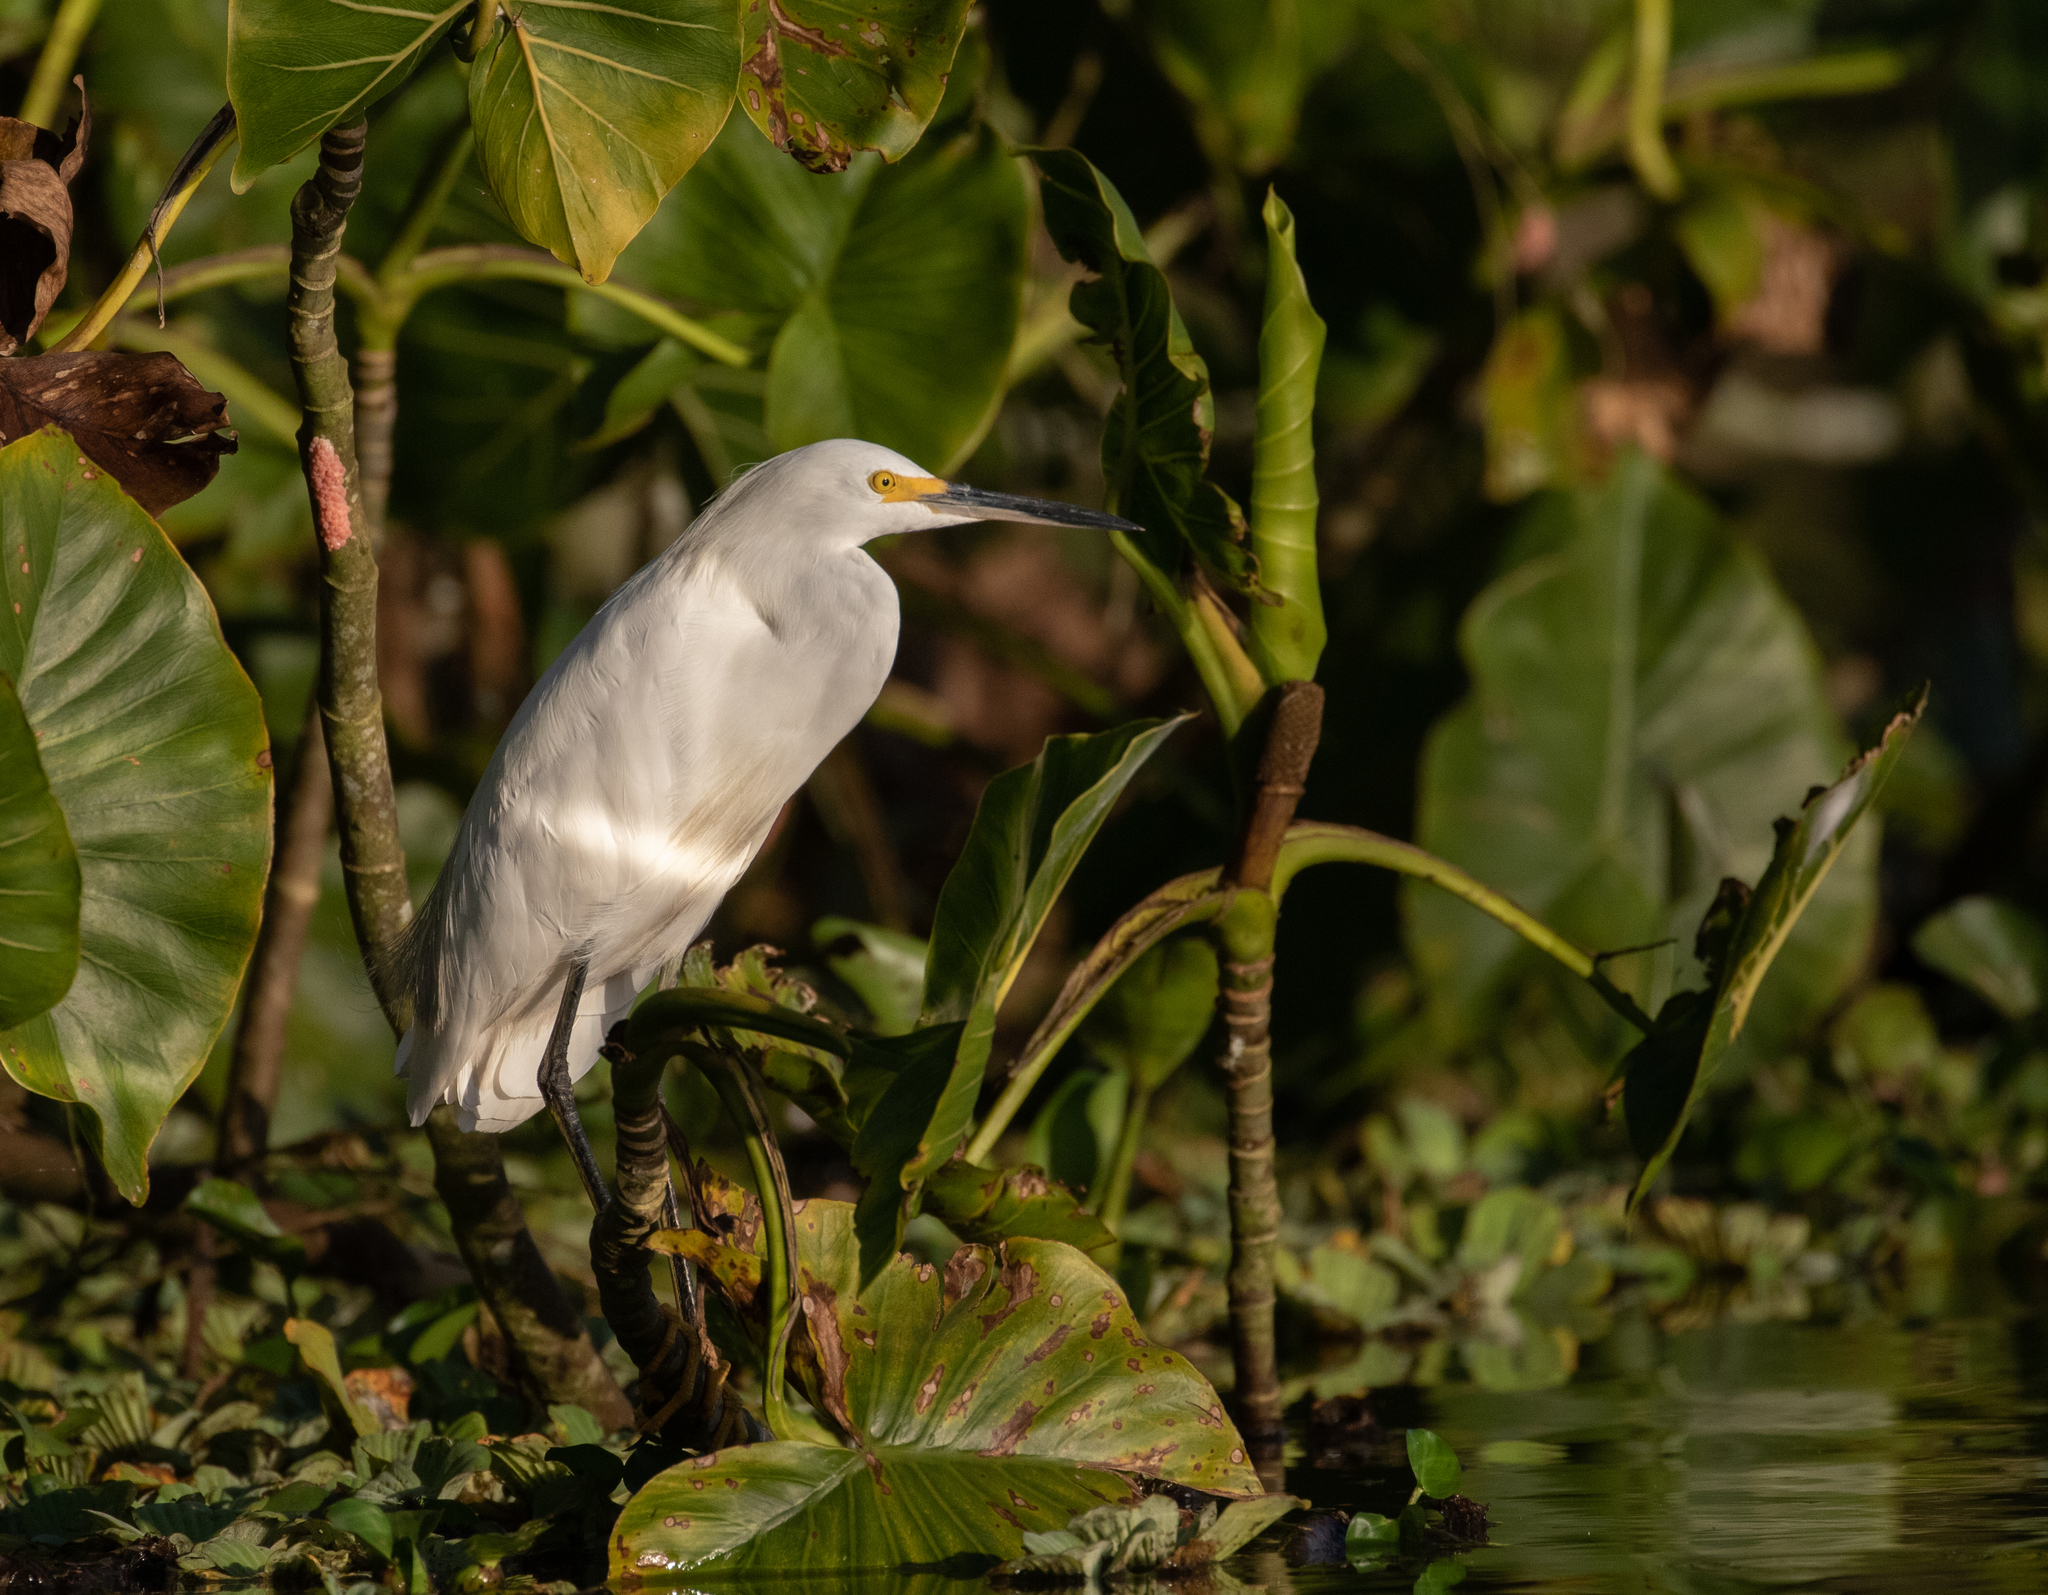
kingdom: Animalia
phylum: Chordata
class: Aves
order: Pelecaniformes
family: Ardeidae
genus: Egretta
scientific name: Egretta thula
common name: Snowy egret
